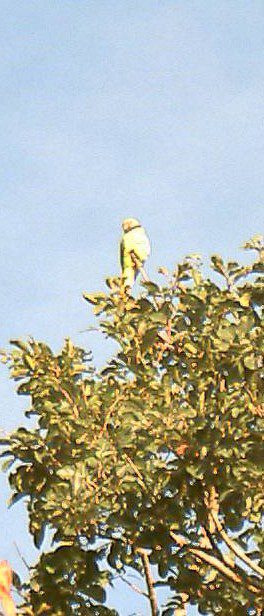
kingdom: Animalia
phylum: Chordata
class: Aves
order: Psittaciformes
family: Psittacidae
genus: Psittacula
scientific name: Psittacula columboides
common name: Blue-winged parakeet
